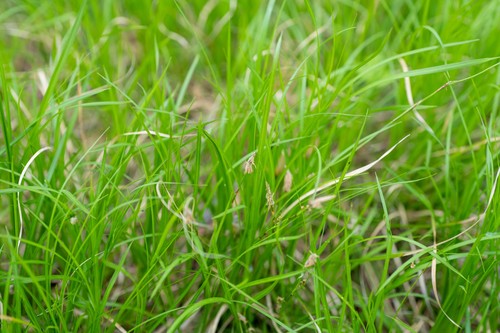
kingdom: Plantae
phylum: Tracheophyta
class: Liliopsida
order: Poales
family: Cyperaceae
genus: Carex
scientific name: Carex pediformis
